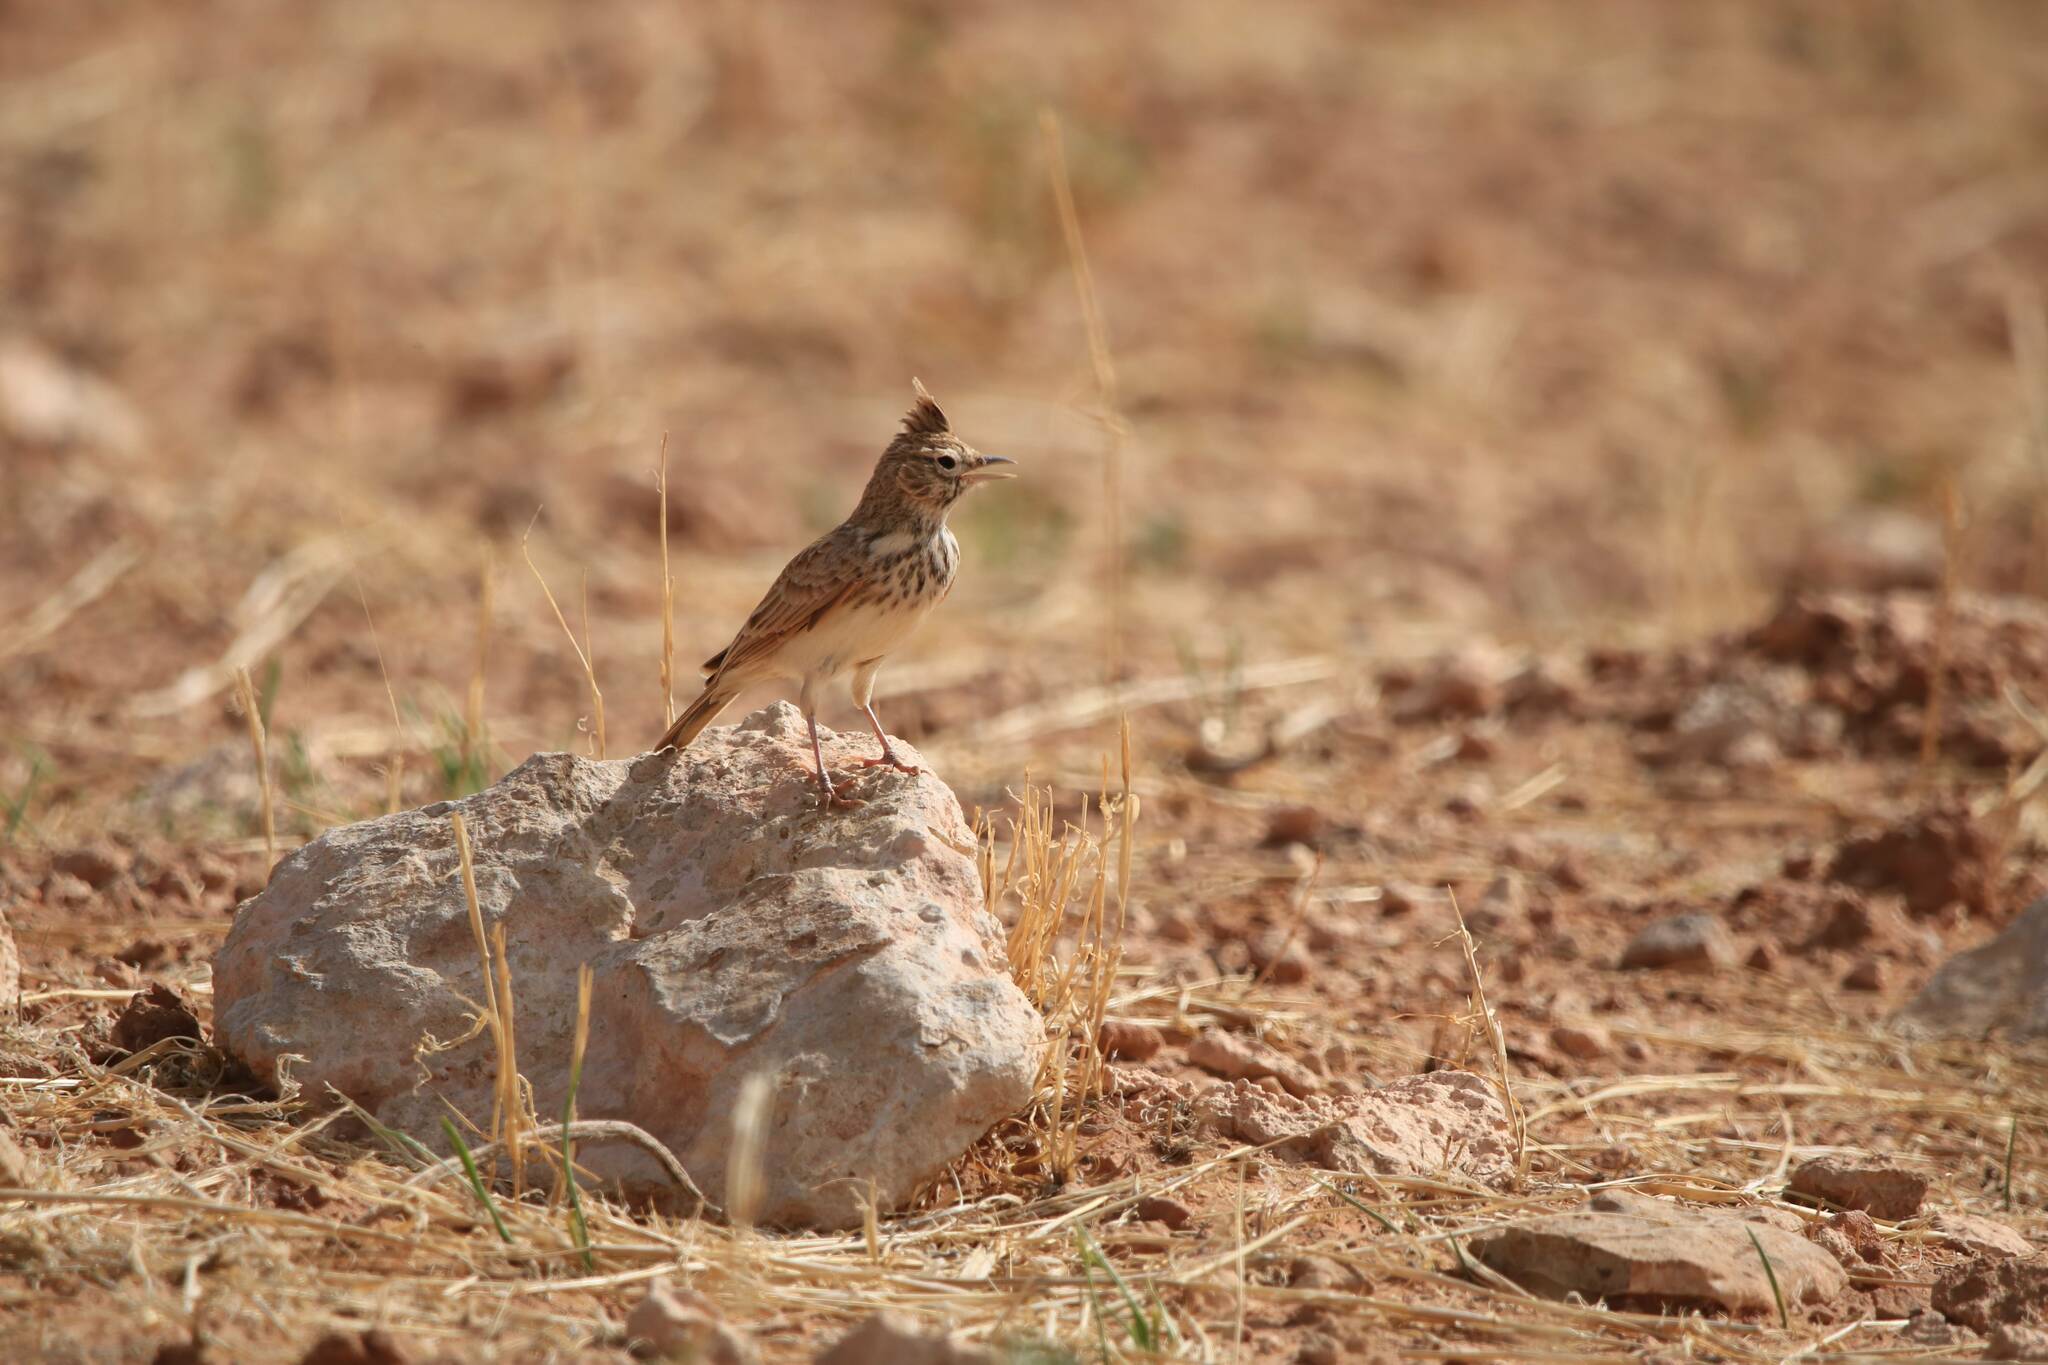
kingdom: Animalia
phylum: Chordata
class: Aves
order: Passeriformes
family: Alaudidae
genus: Galerida
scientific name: Galerida theklae
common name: Thekla lark
